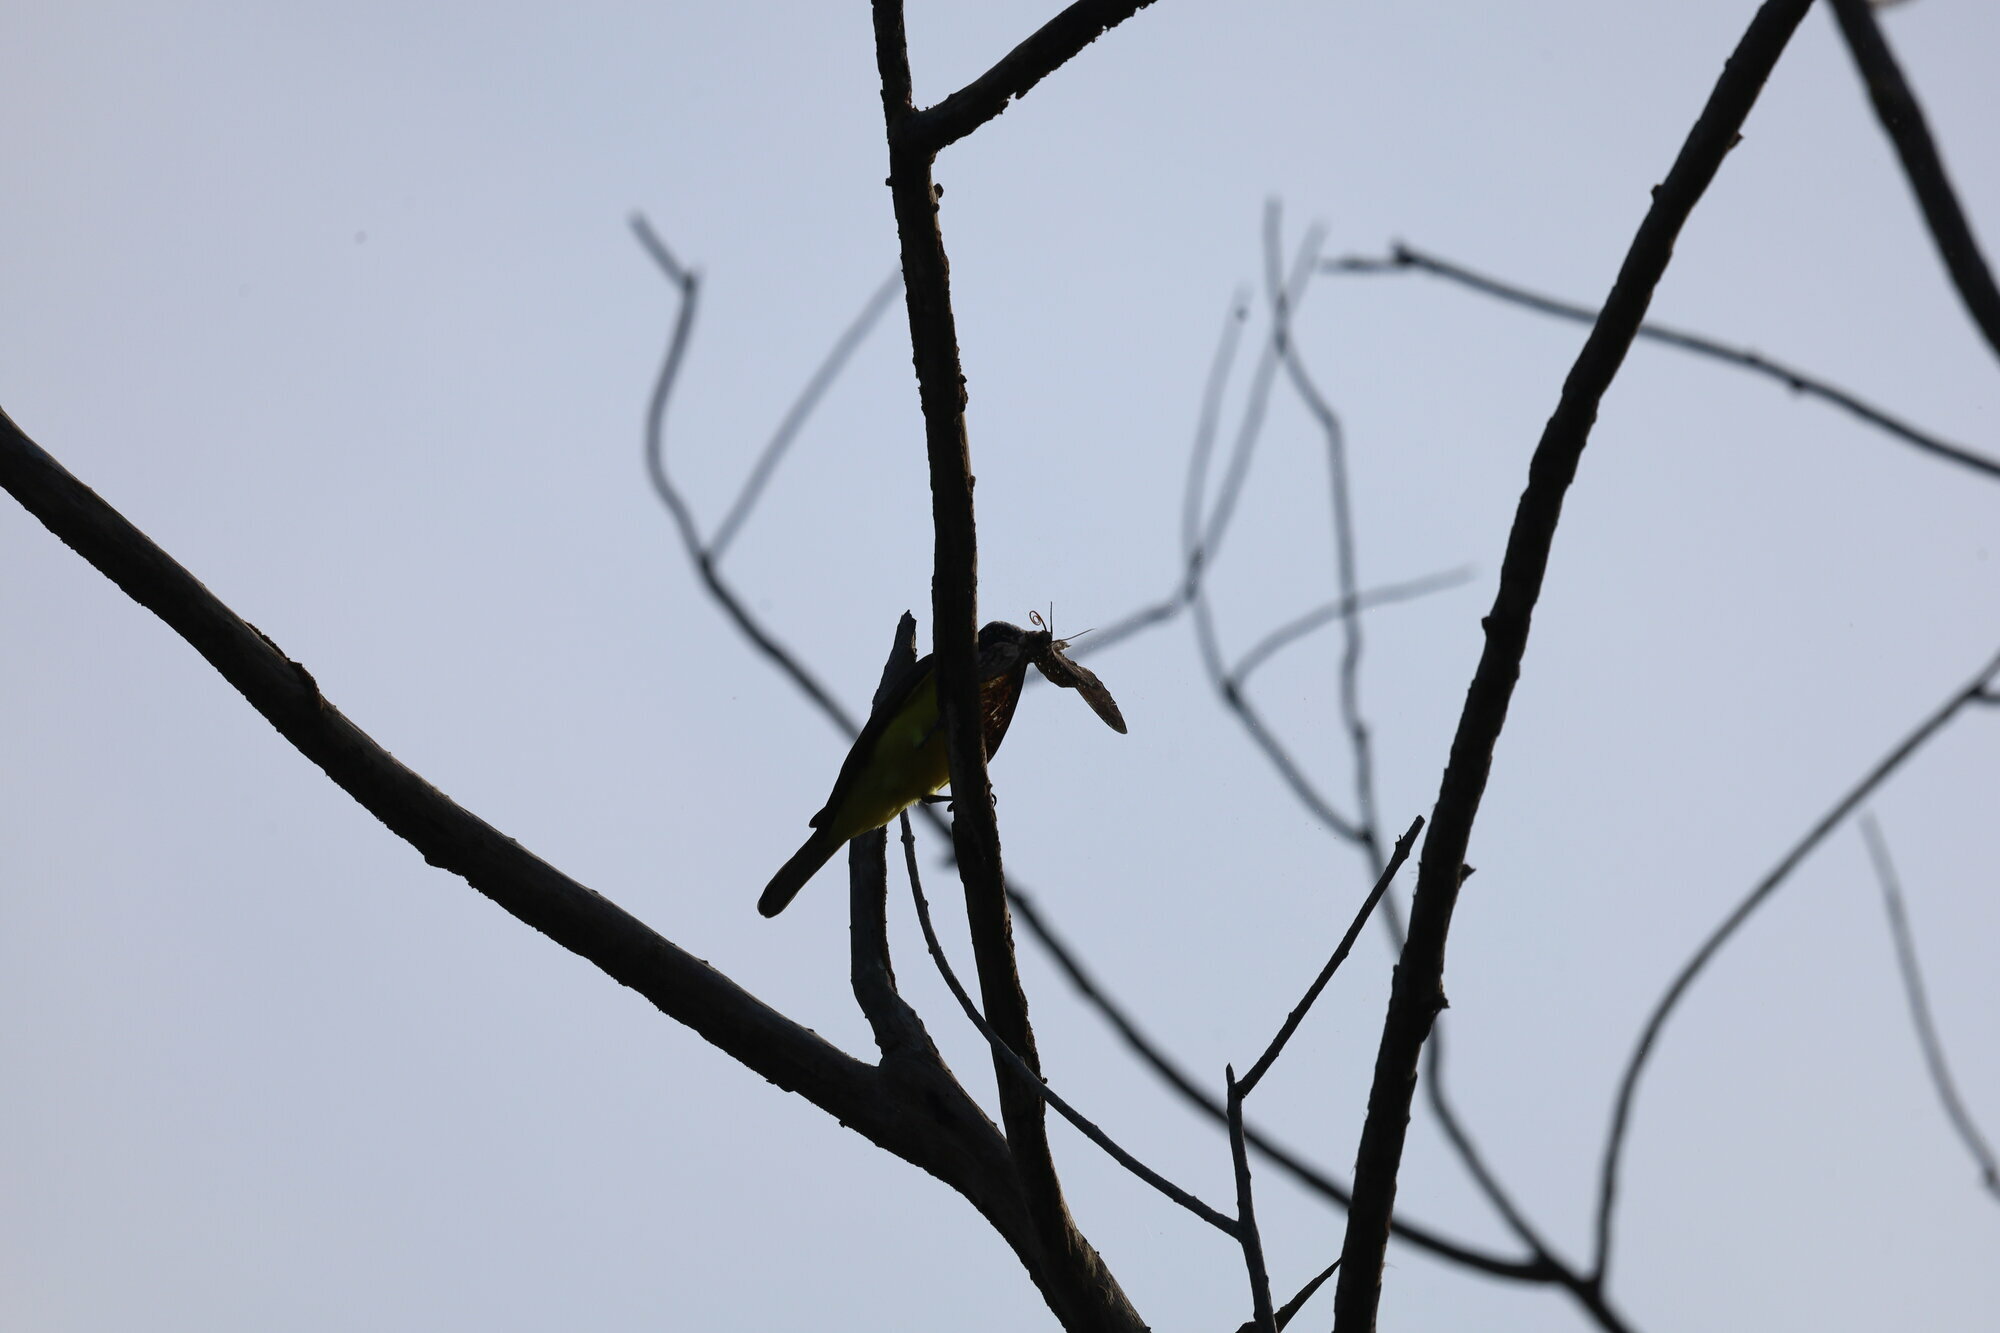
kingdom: Animalia
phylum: Arthropoda
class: Insecta
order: Lepidoptera
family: Sphingidae
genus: Pseudosphinx
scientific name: Pseudosphinx tetrio
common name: Tetrio sphinx
